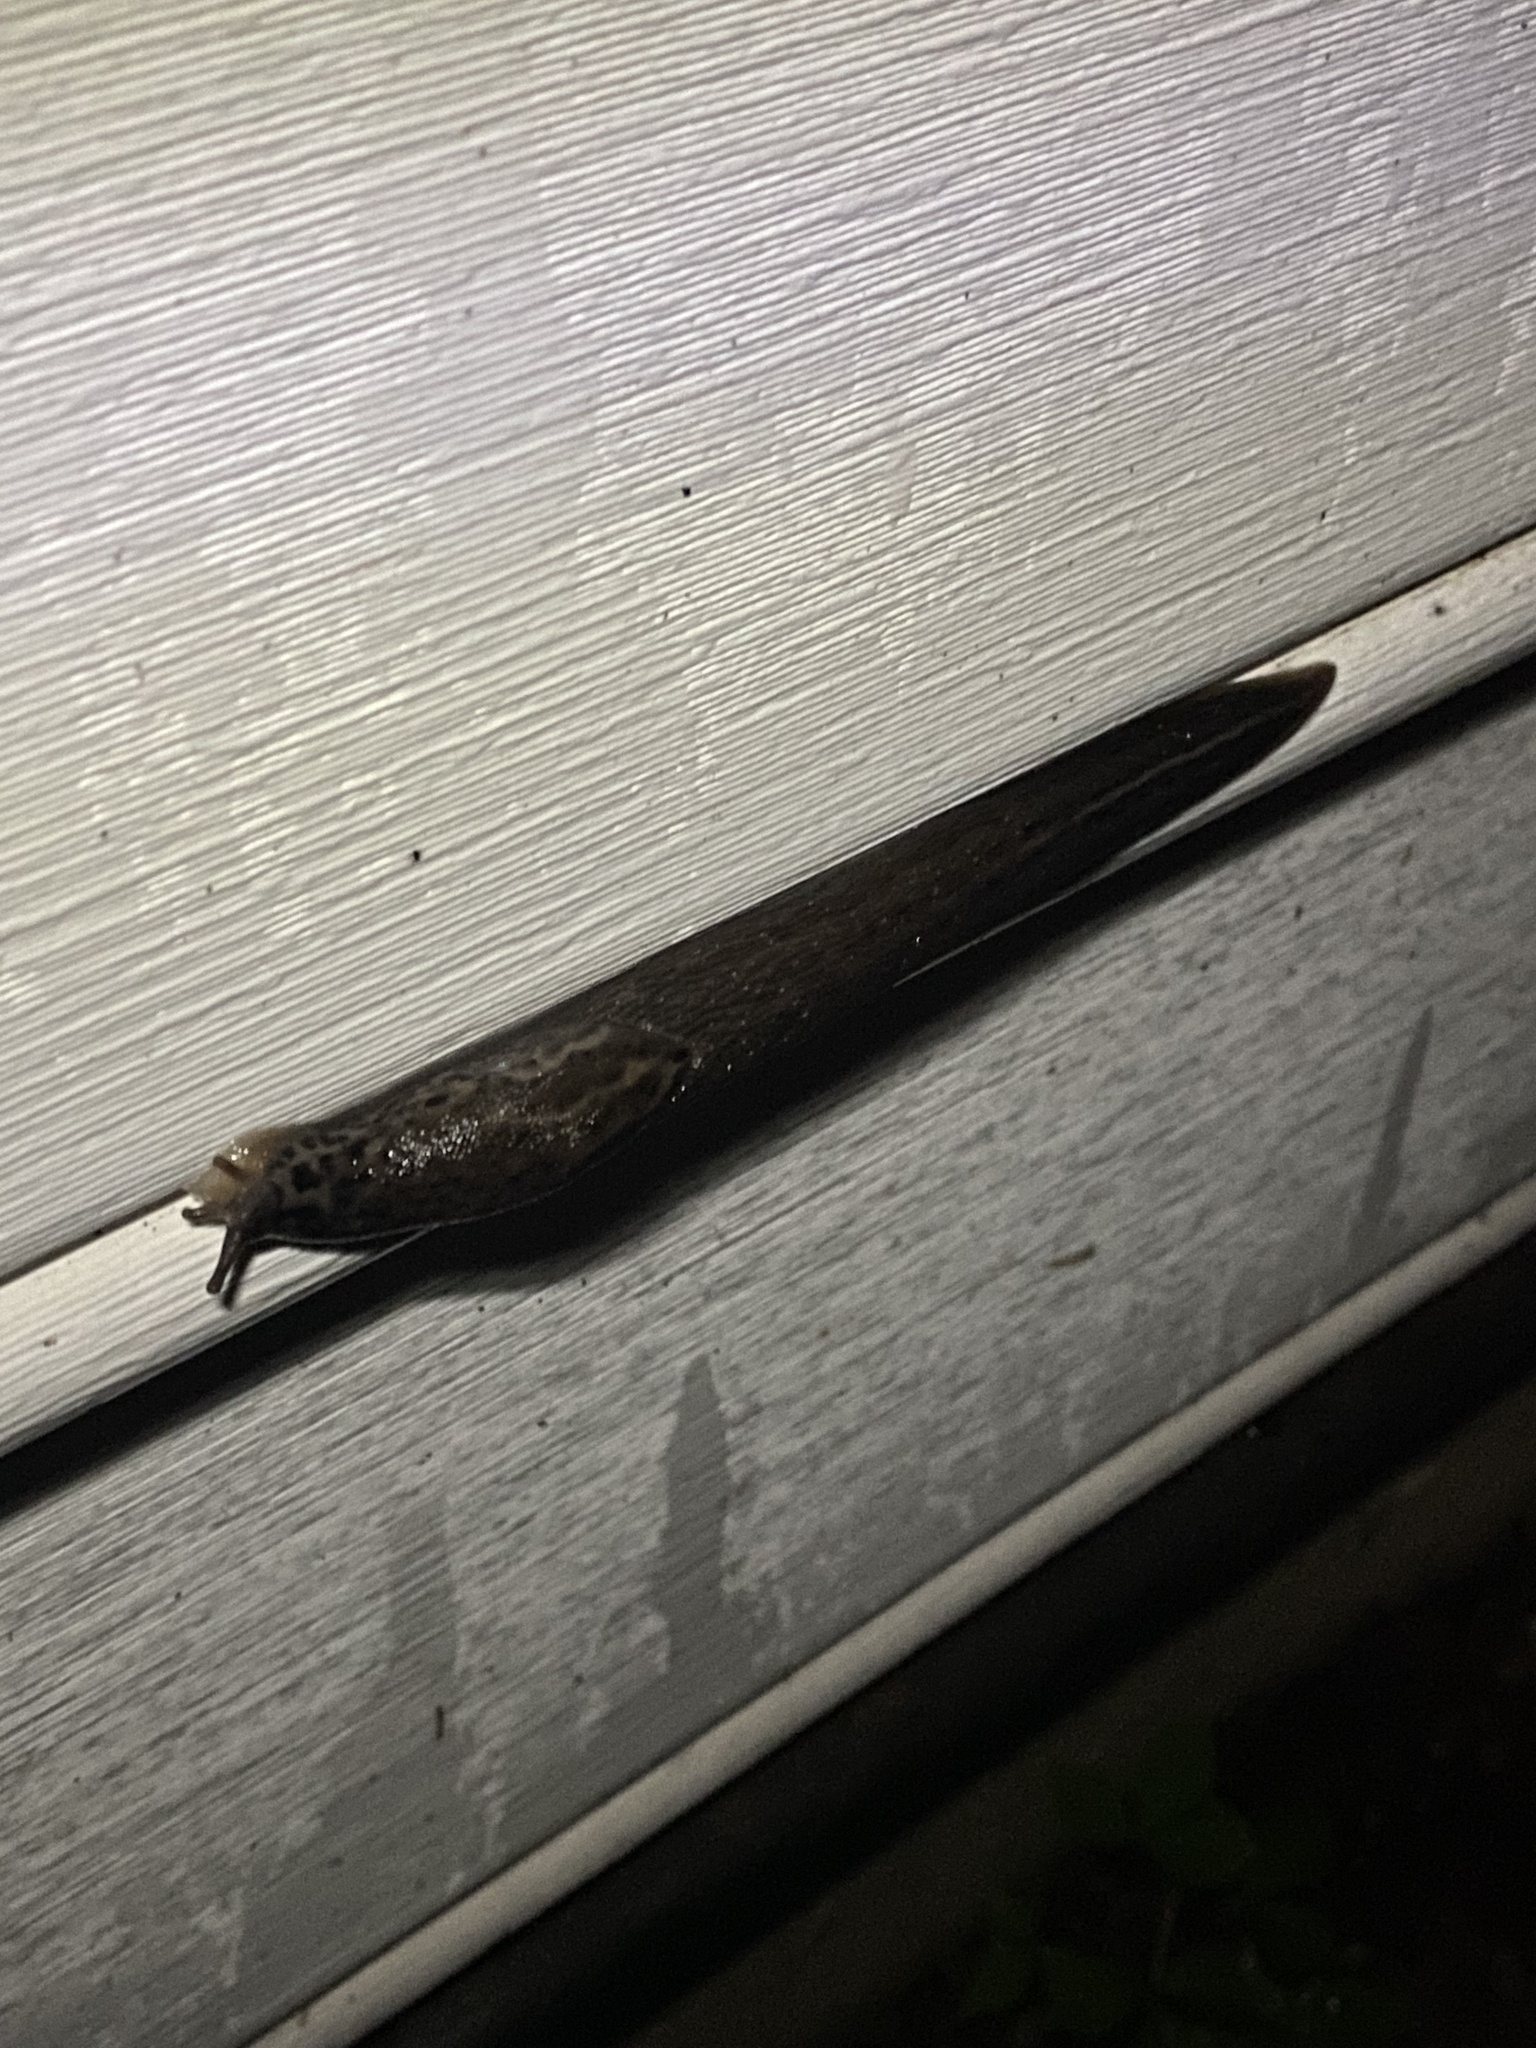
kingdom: Animalia
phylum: Mollusca
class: Gastropoda
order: Stylommatophora
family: Limacidae
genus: Limax
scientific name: Limax maximus
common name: Great grey slug
